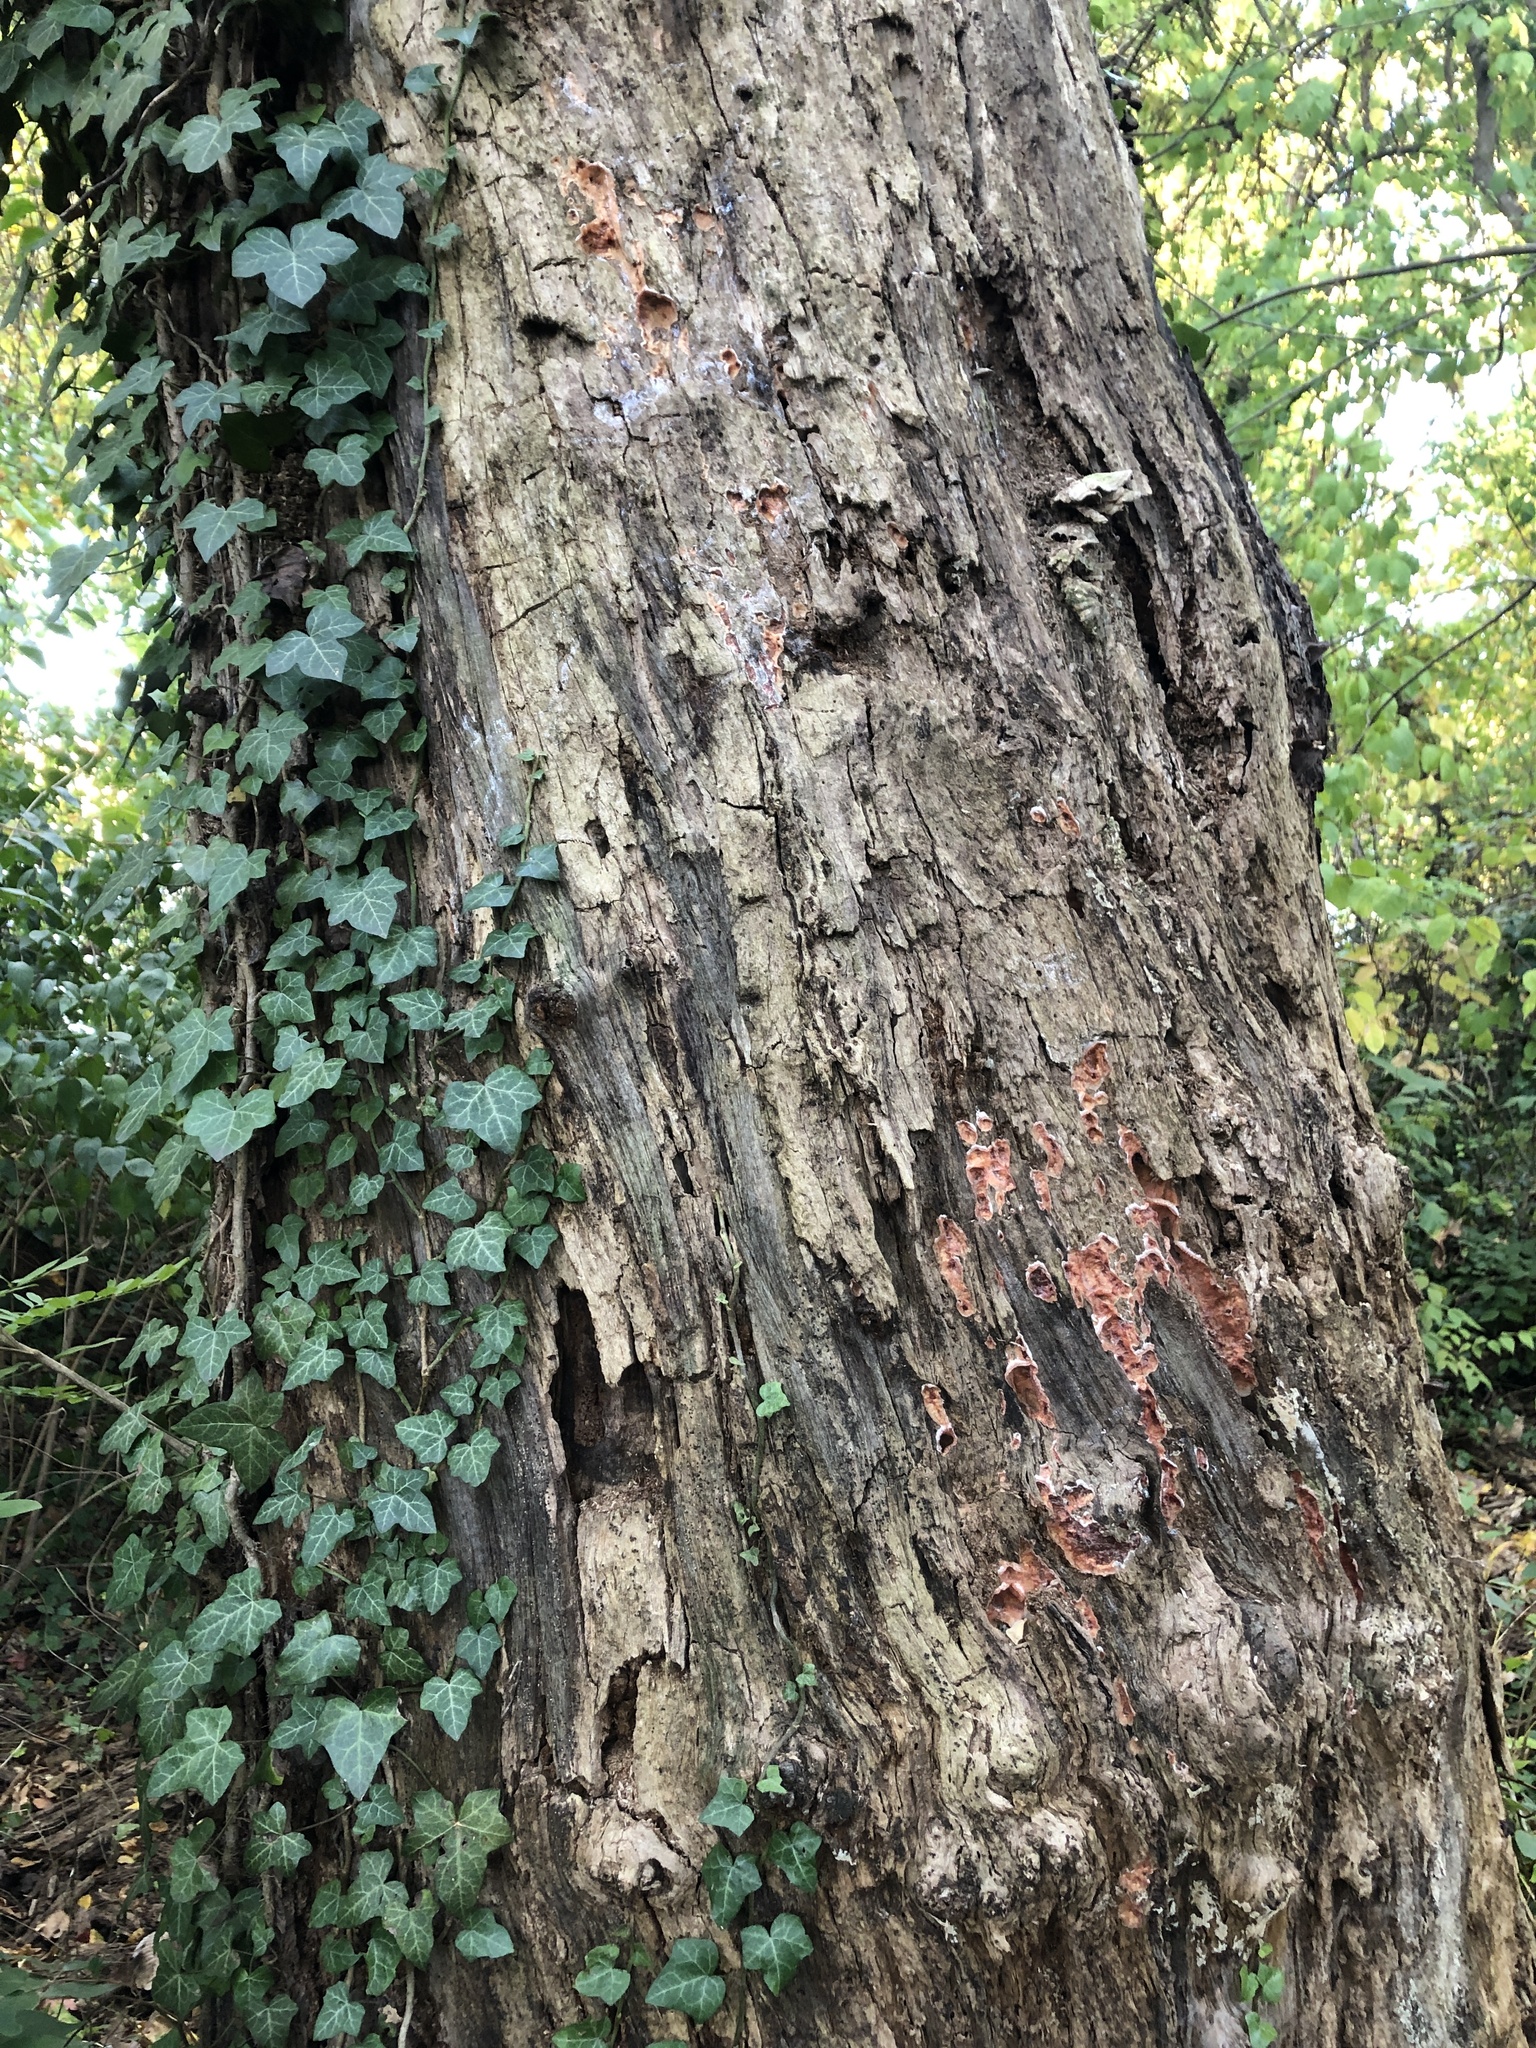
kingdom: Fungi
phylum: Basidiomycota
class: Agaricomycetes
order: Polyporales
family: Meruliaceae
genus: Phlebia
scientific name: Phlebia tremellosa
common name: Jelly rot
